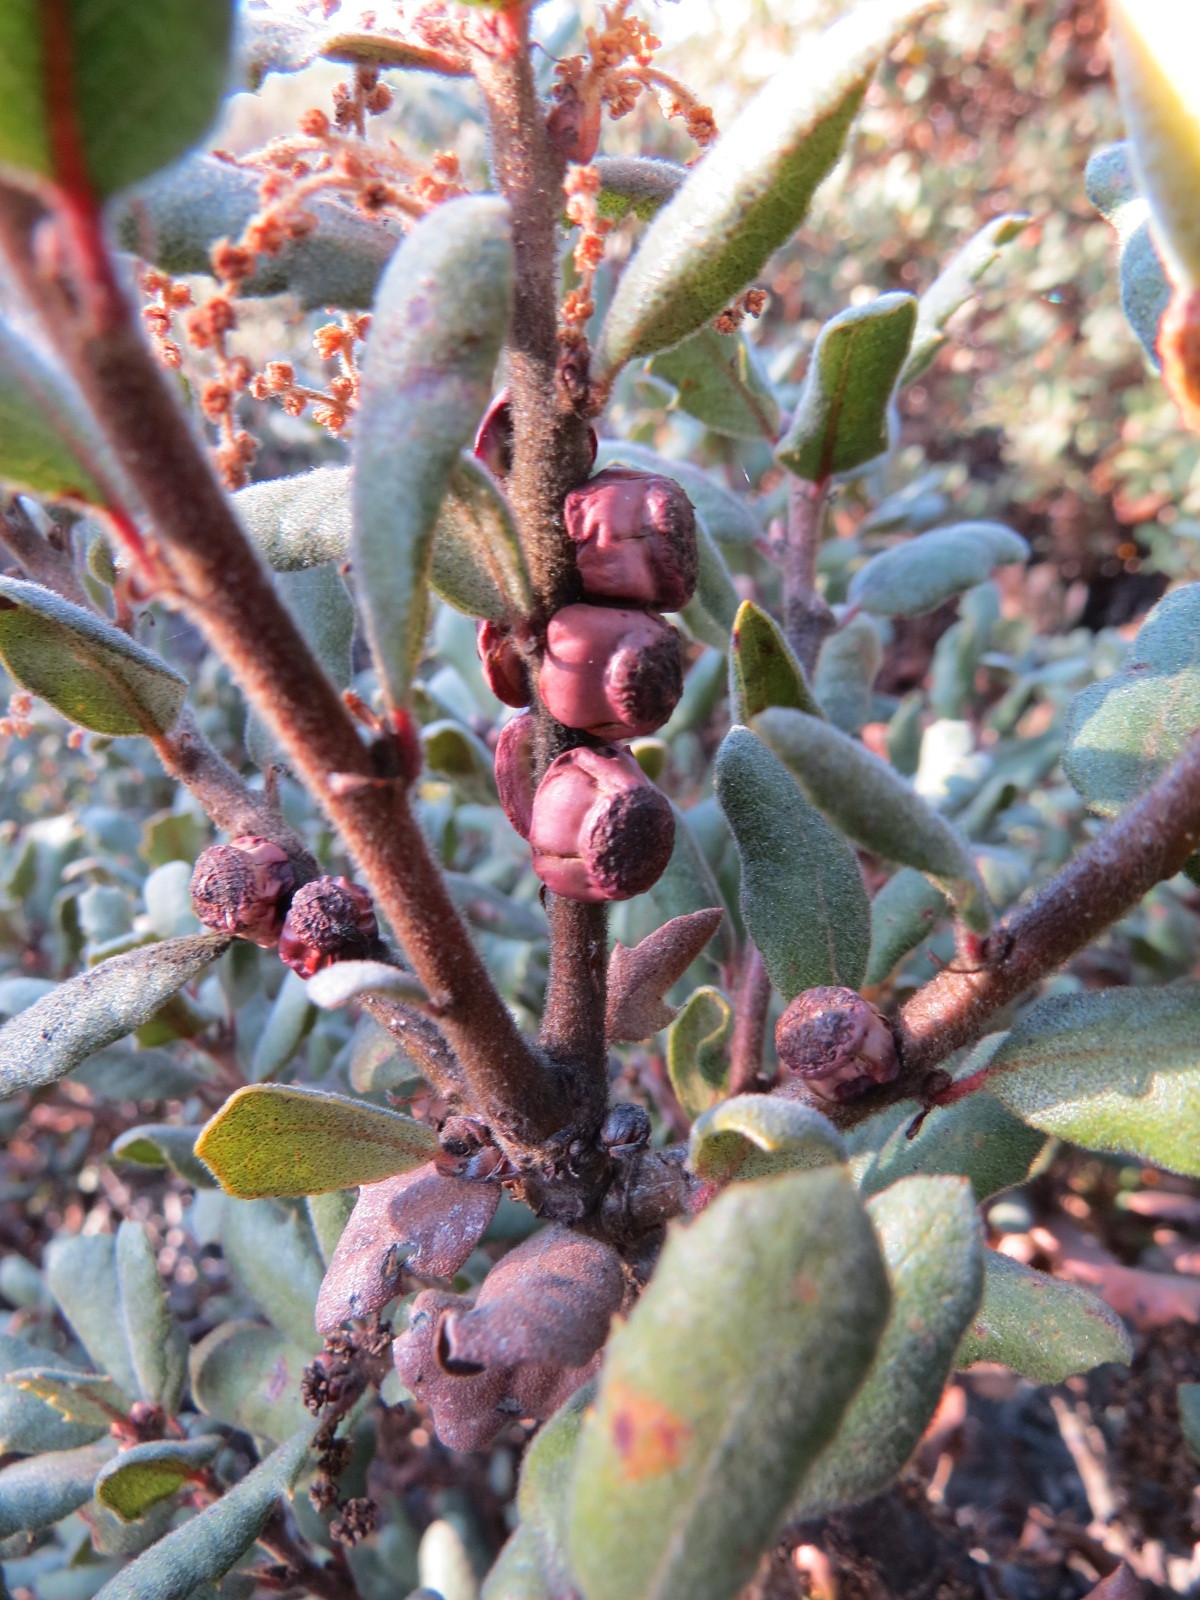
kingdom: Animalia
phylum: Arthropoda
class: Insecta
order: Hymenoptera
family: Cynipidae
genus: Disholcaspis
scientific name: Disholcaspis prehensa
